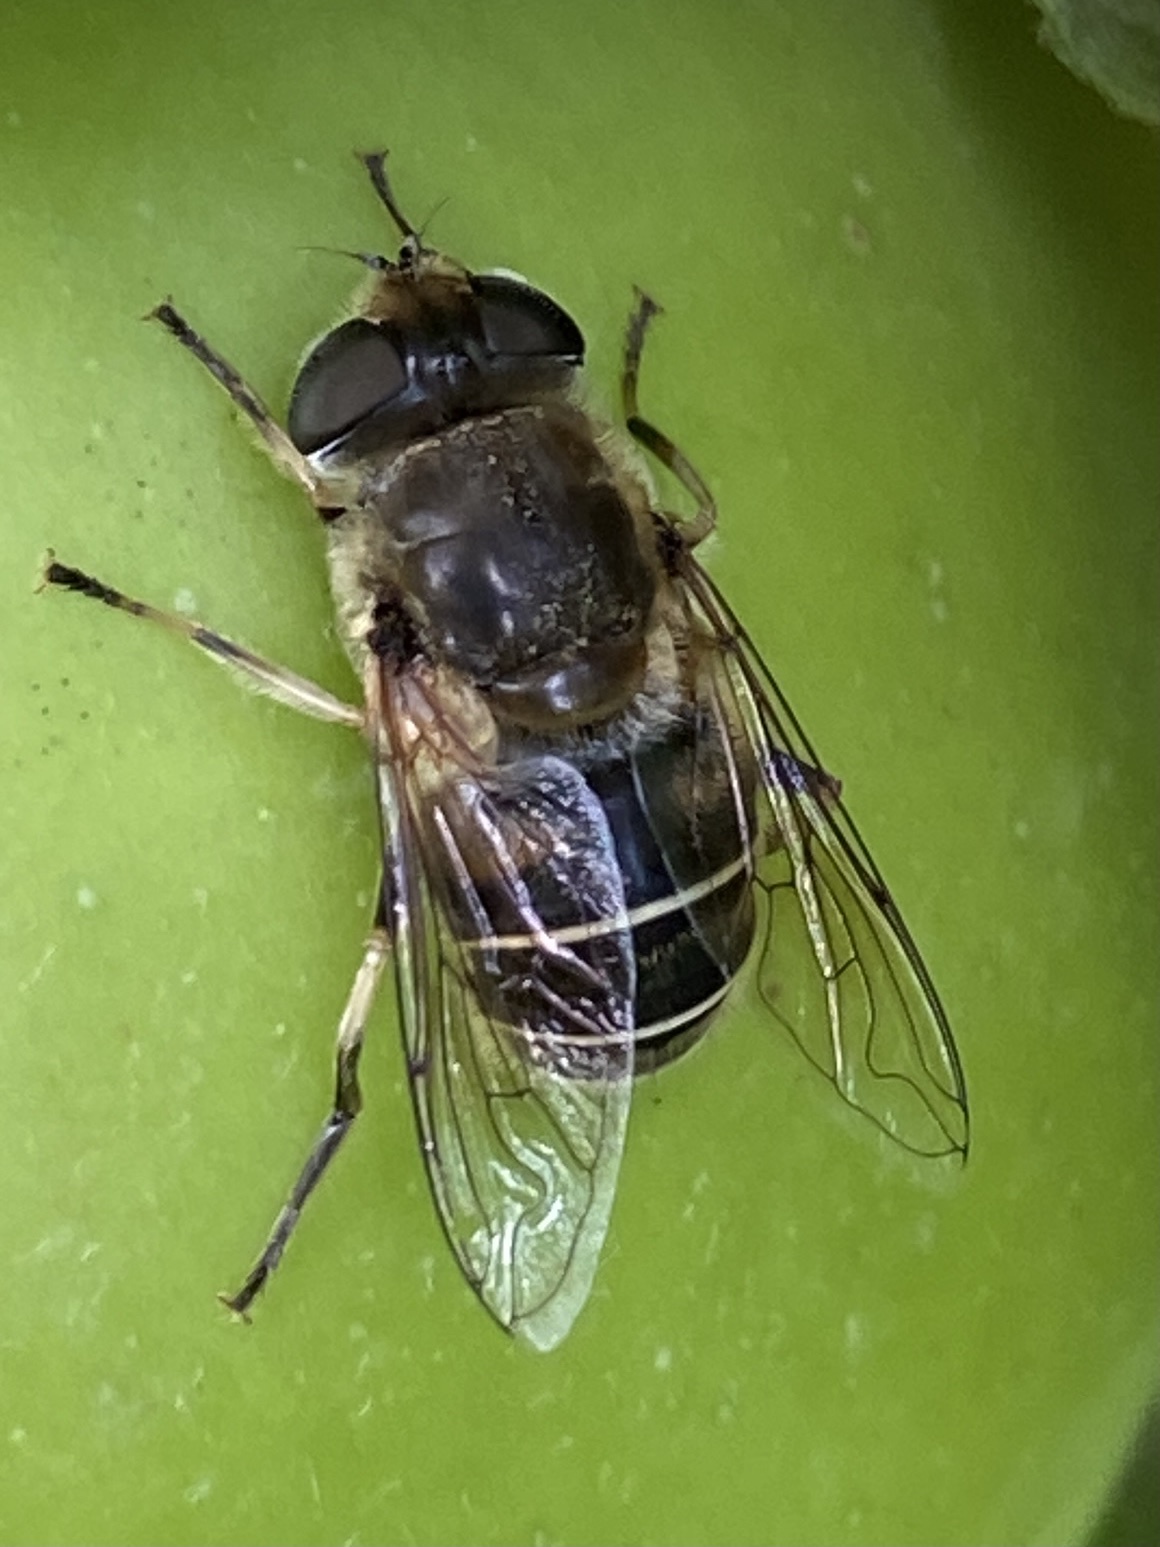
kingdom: Animalia
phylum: Arthropoda
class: Insecta
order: Diptera
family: Syrphidae
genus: Eristalis
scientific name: Eristalis nemorum
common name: Orange-spined drone fly
